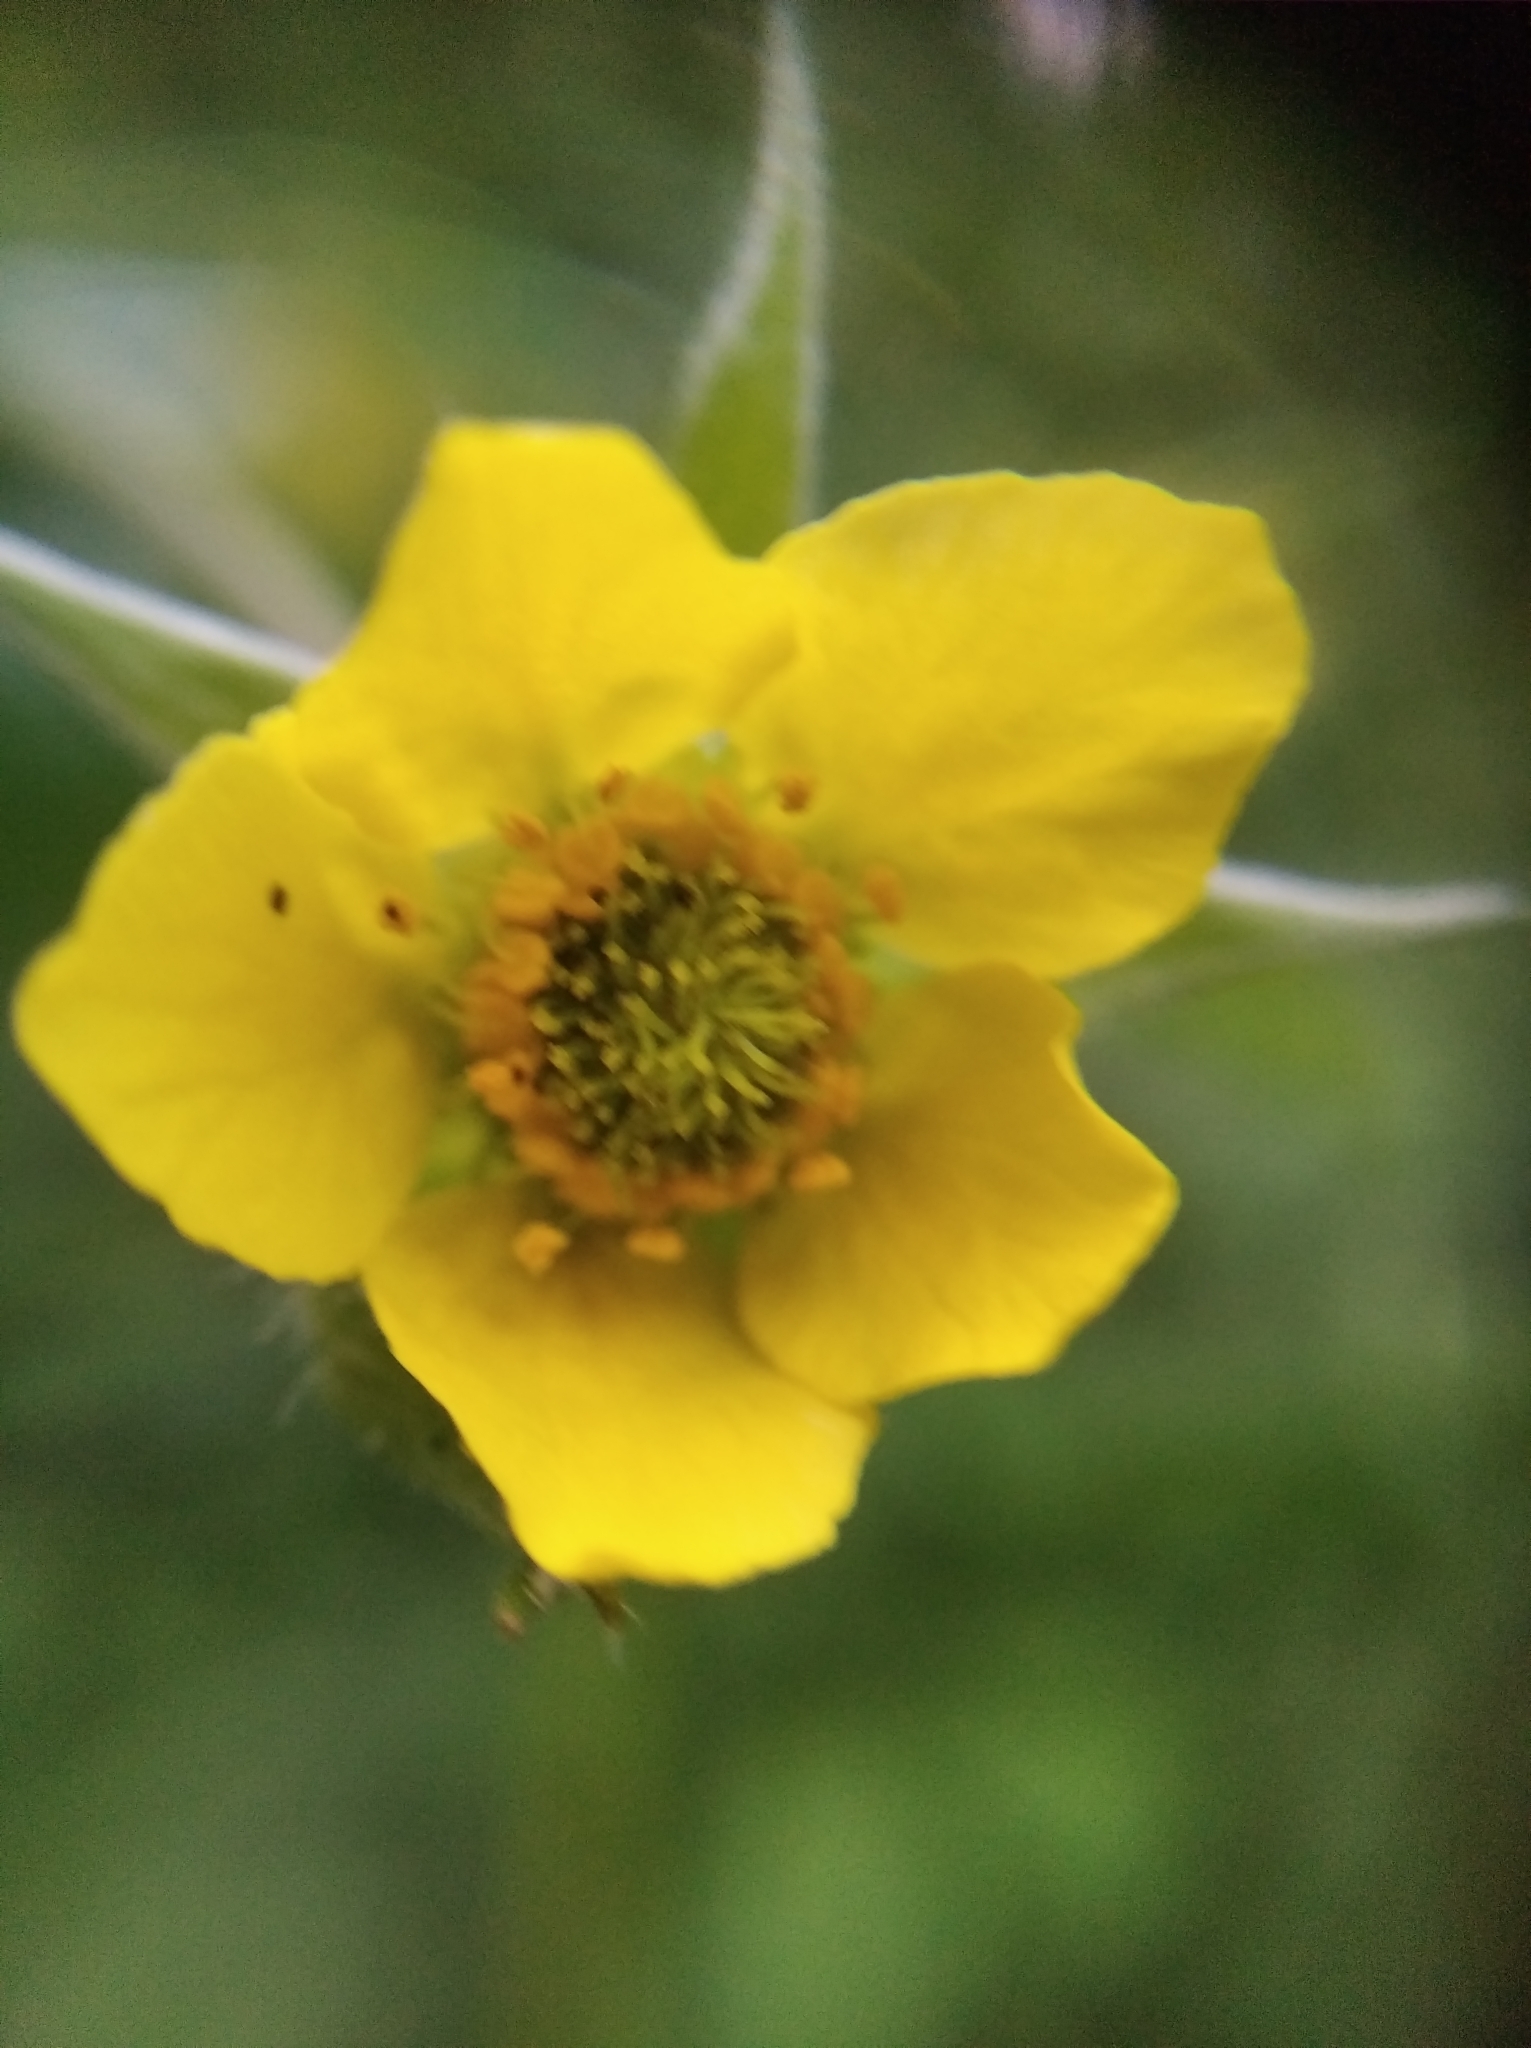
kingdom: Plantae
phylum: Tracheophyta
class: Magnoliopsida
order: Rosales
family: Rosaceae
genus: Geum
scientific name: Geum urbanum
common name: Wood avens
